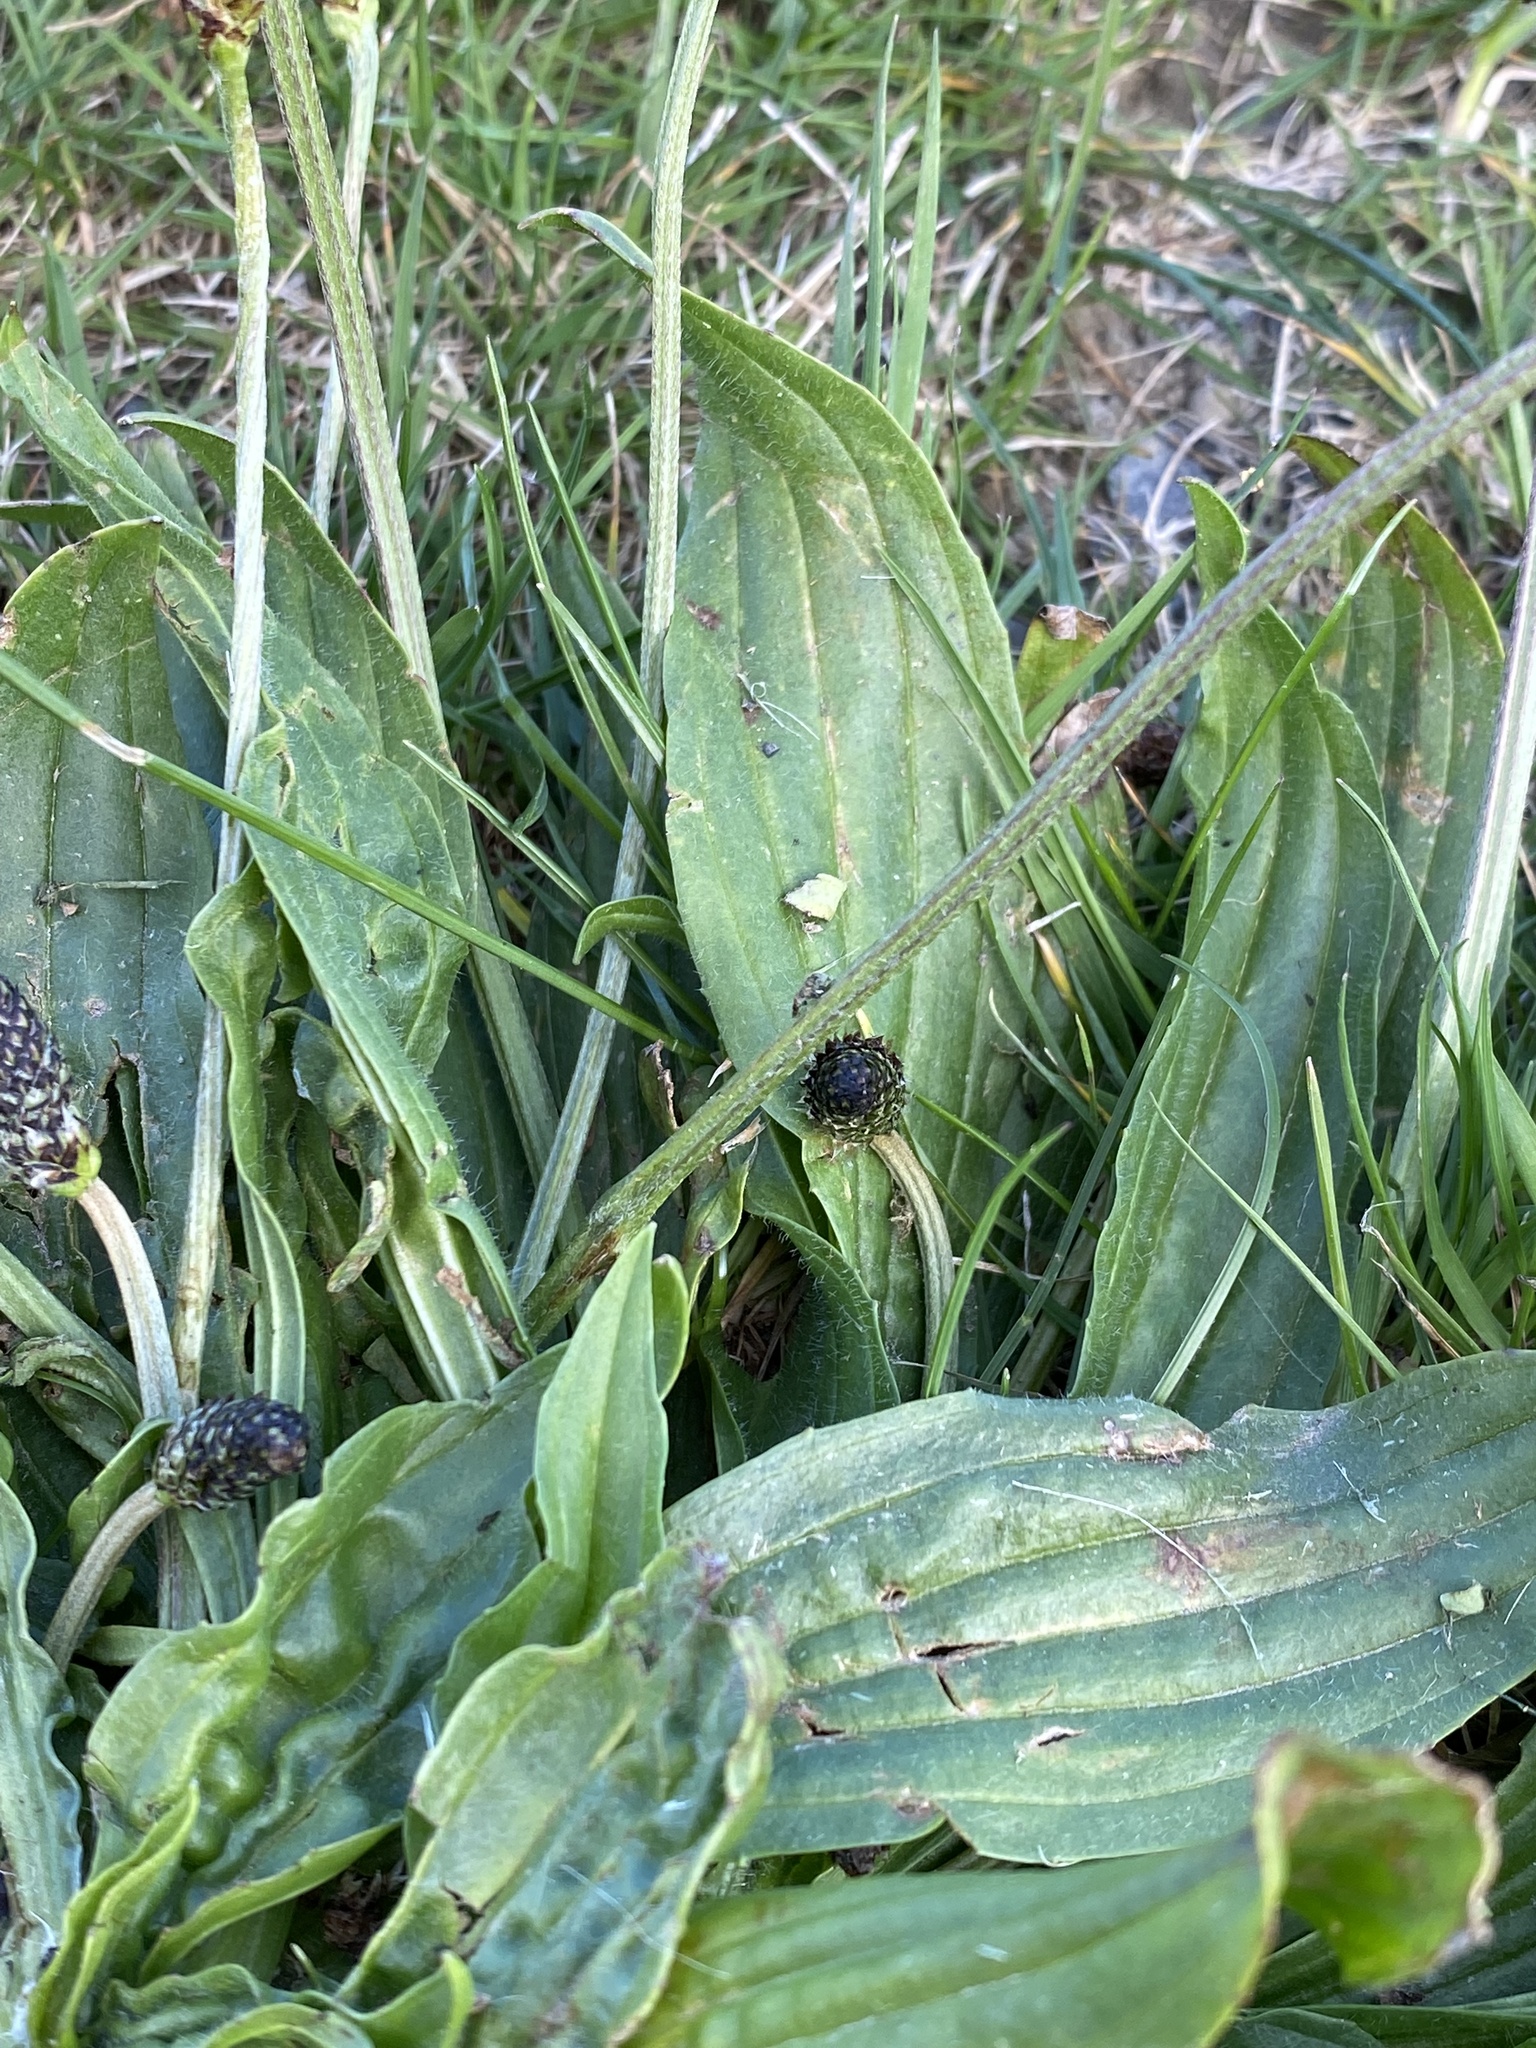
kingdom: Plantae
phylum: Tracheophyta
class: Magnoliopsida
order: Lamiales
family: Plantaginaceae
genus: Plantago
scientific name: Plantago lanceolata
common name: Ribwort plantain
